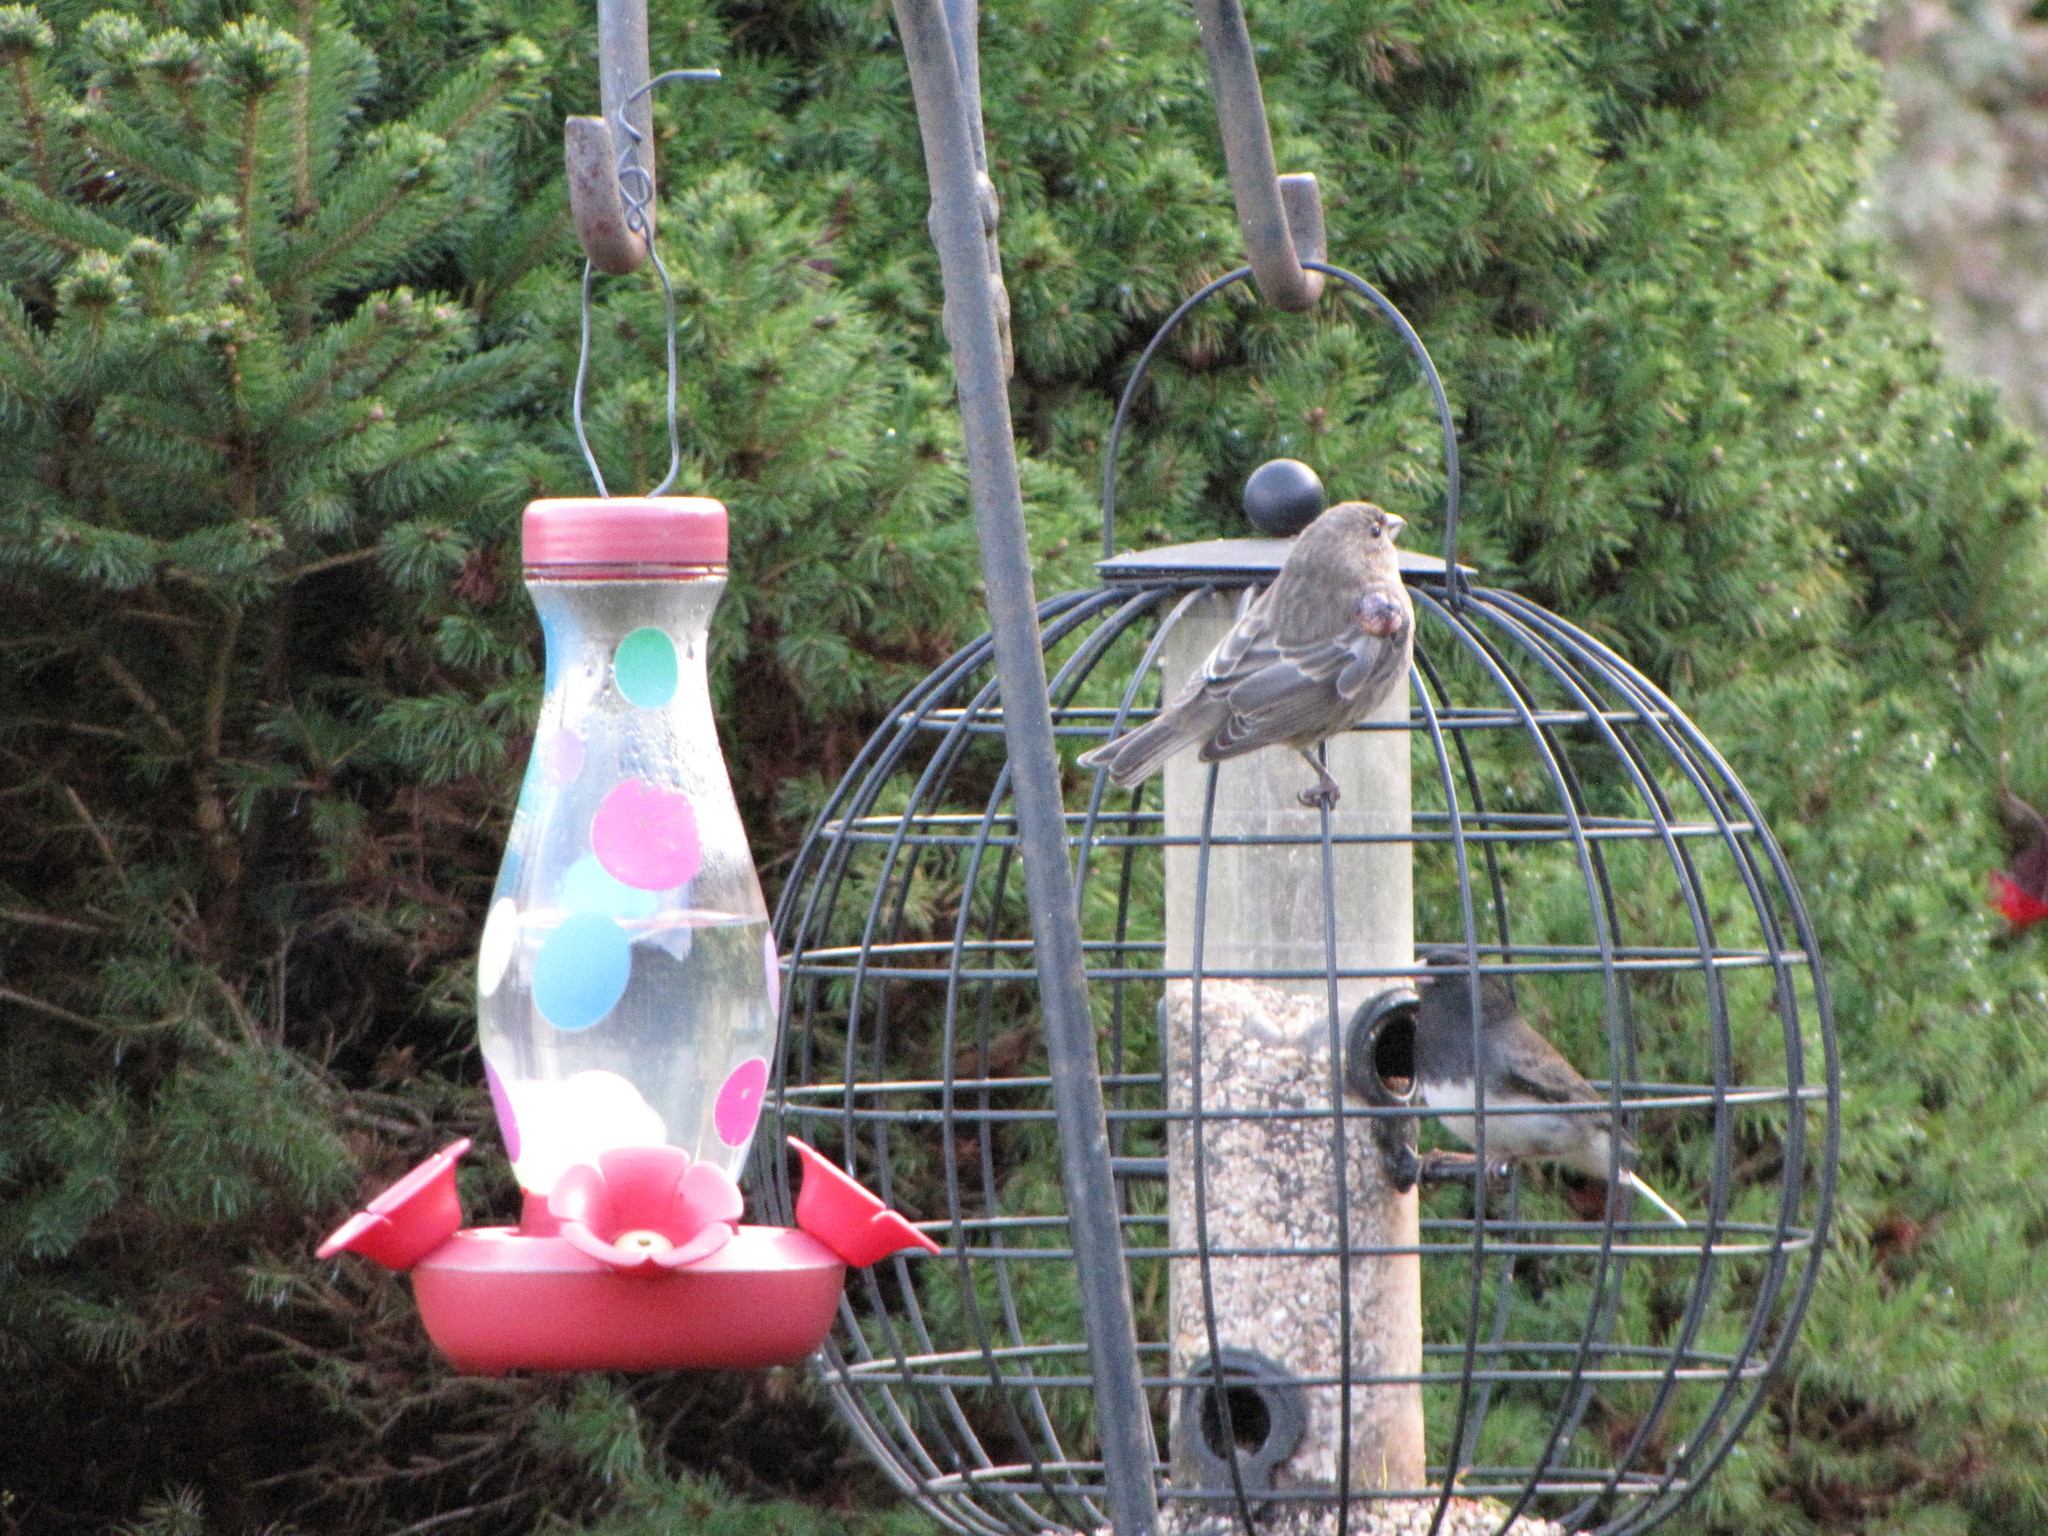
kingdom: Animalia
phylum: Chordata
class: Aves
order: Passeriformes
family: Fringillidae
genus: Haemorhous
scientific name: Haemorhous mexicanus
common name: House finch
